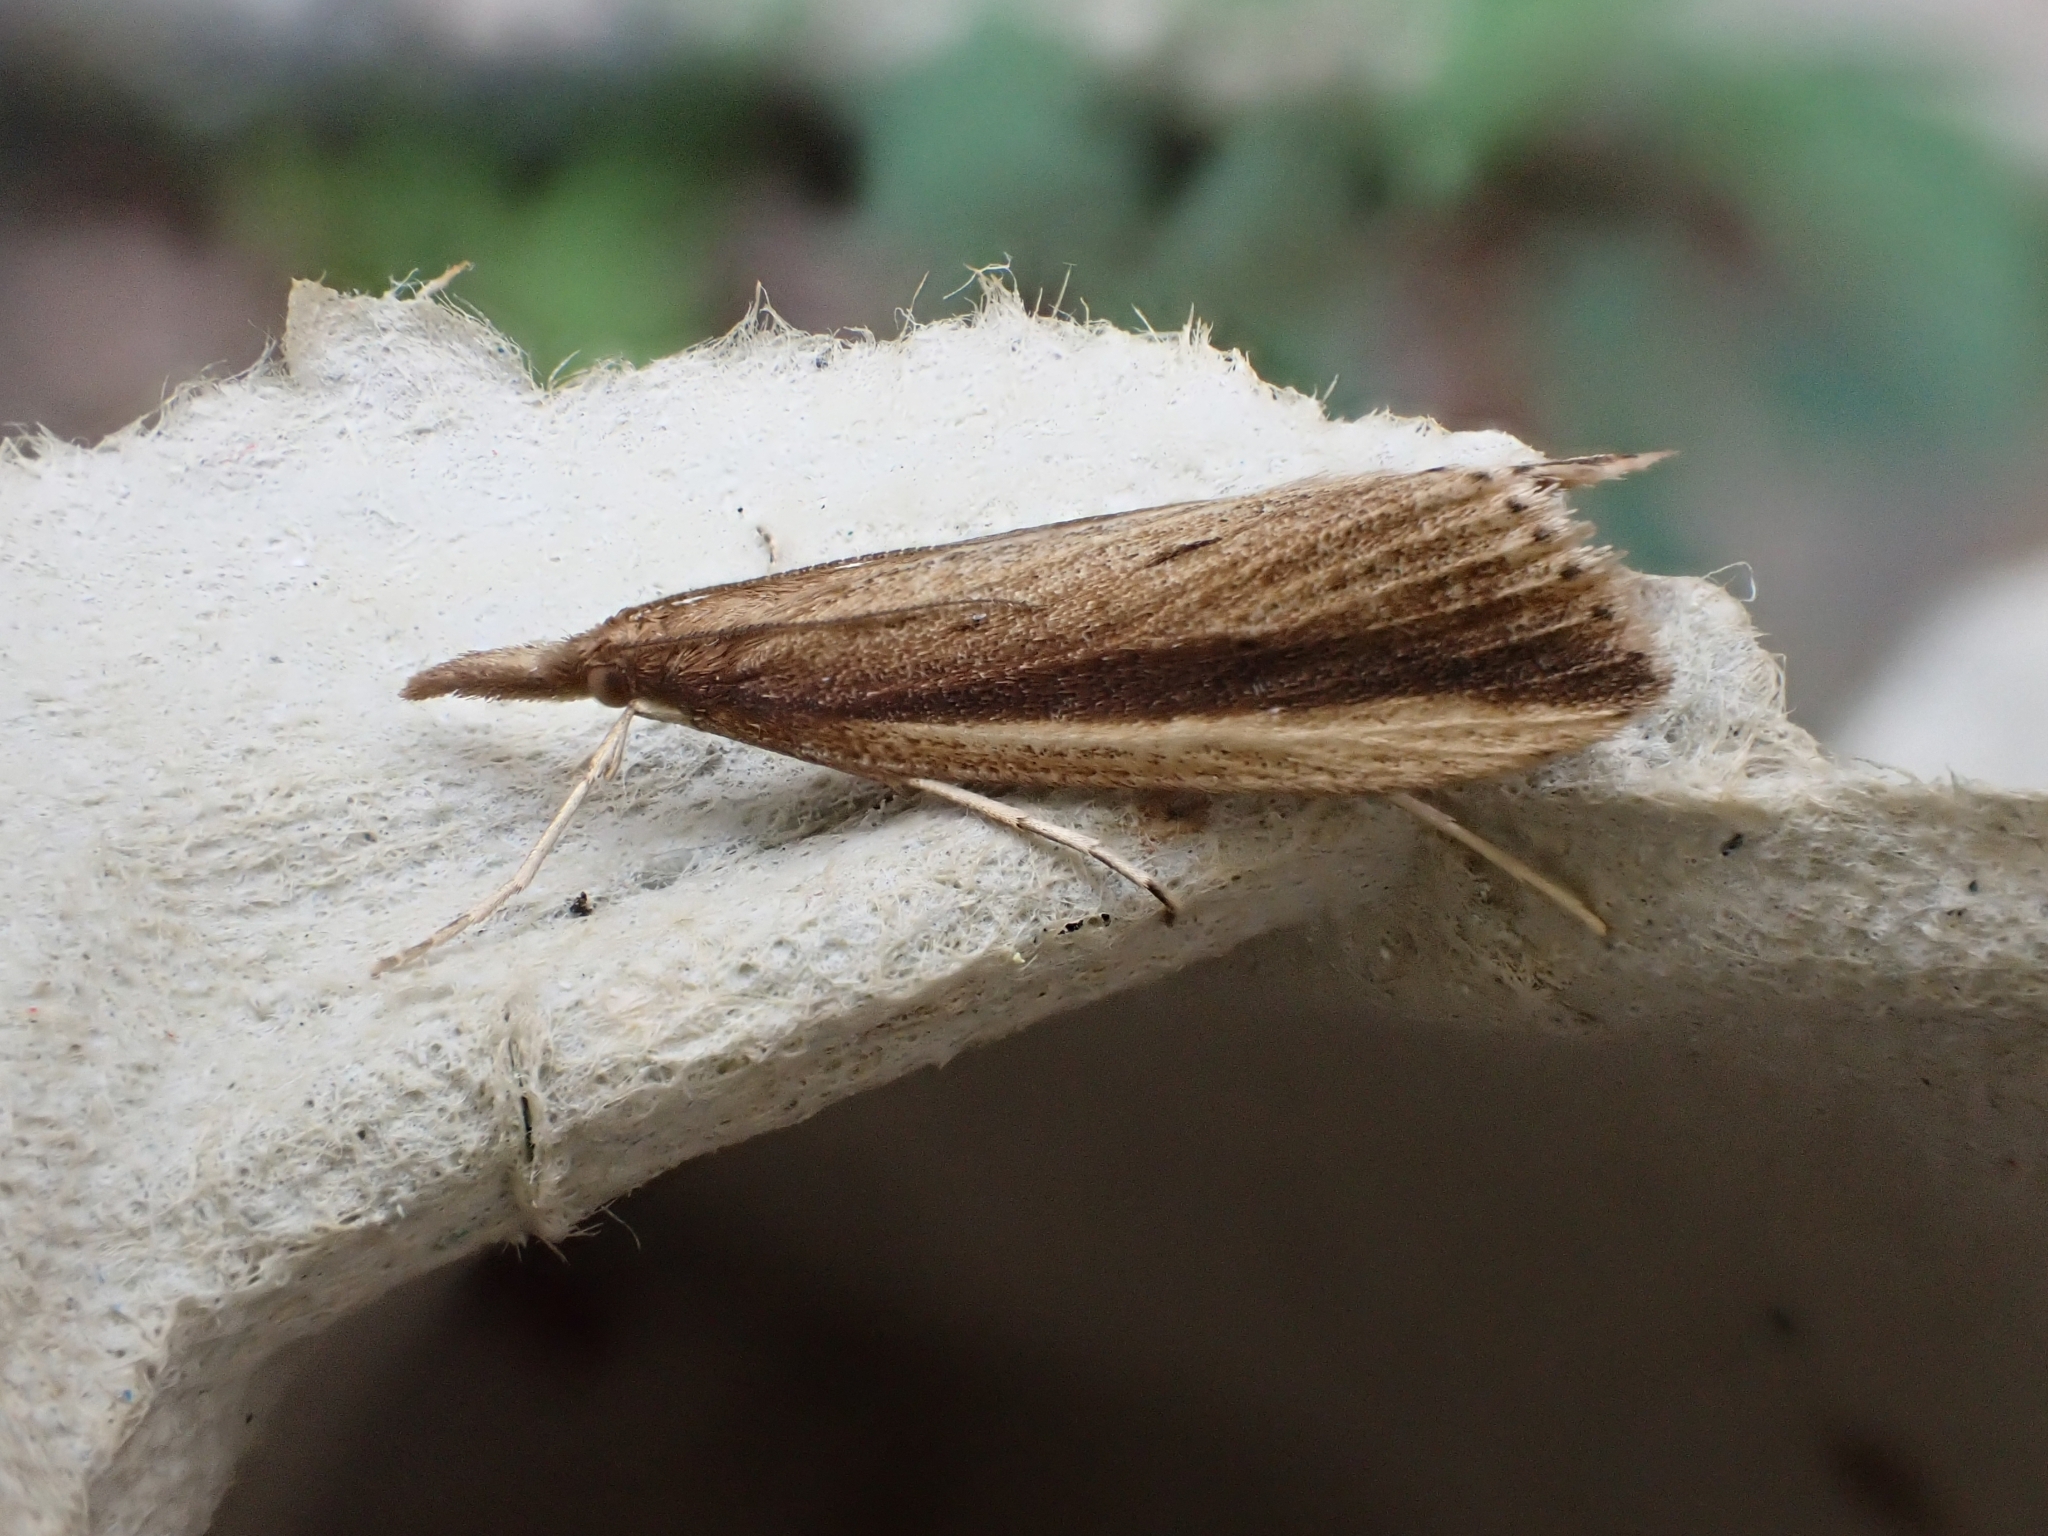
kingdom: Animalia
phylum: Arthropoda
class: Insecta
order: Lepidoptera
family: Crambidae
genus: Donacaula
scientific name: Donacaula mucronella
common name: Scarce water-veneer
